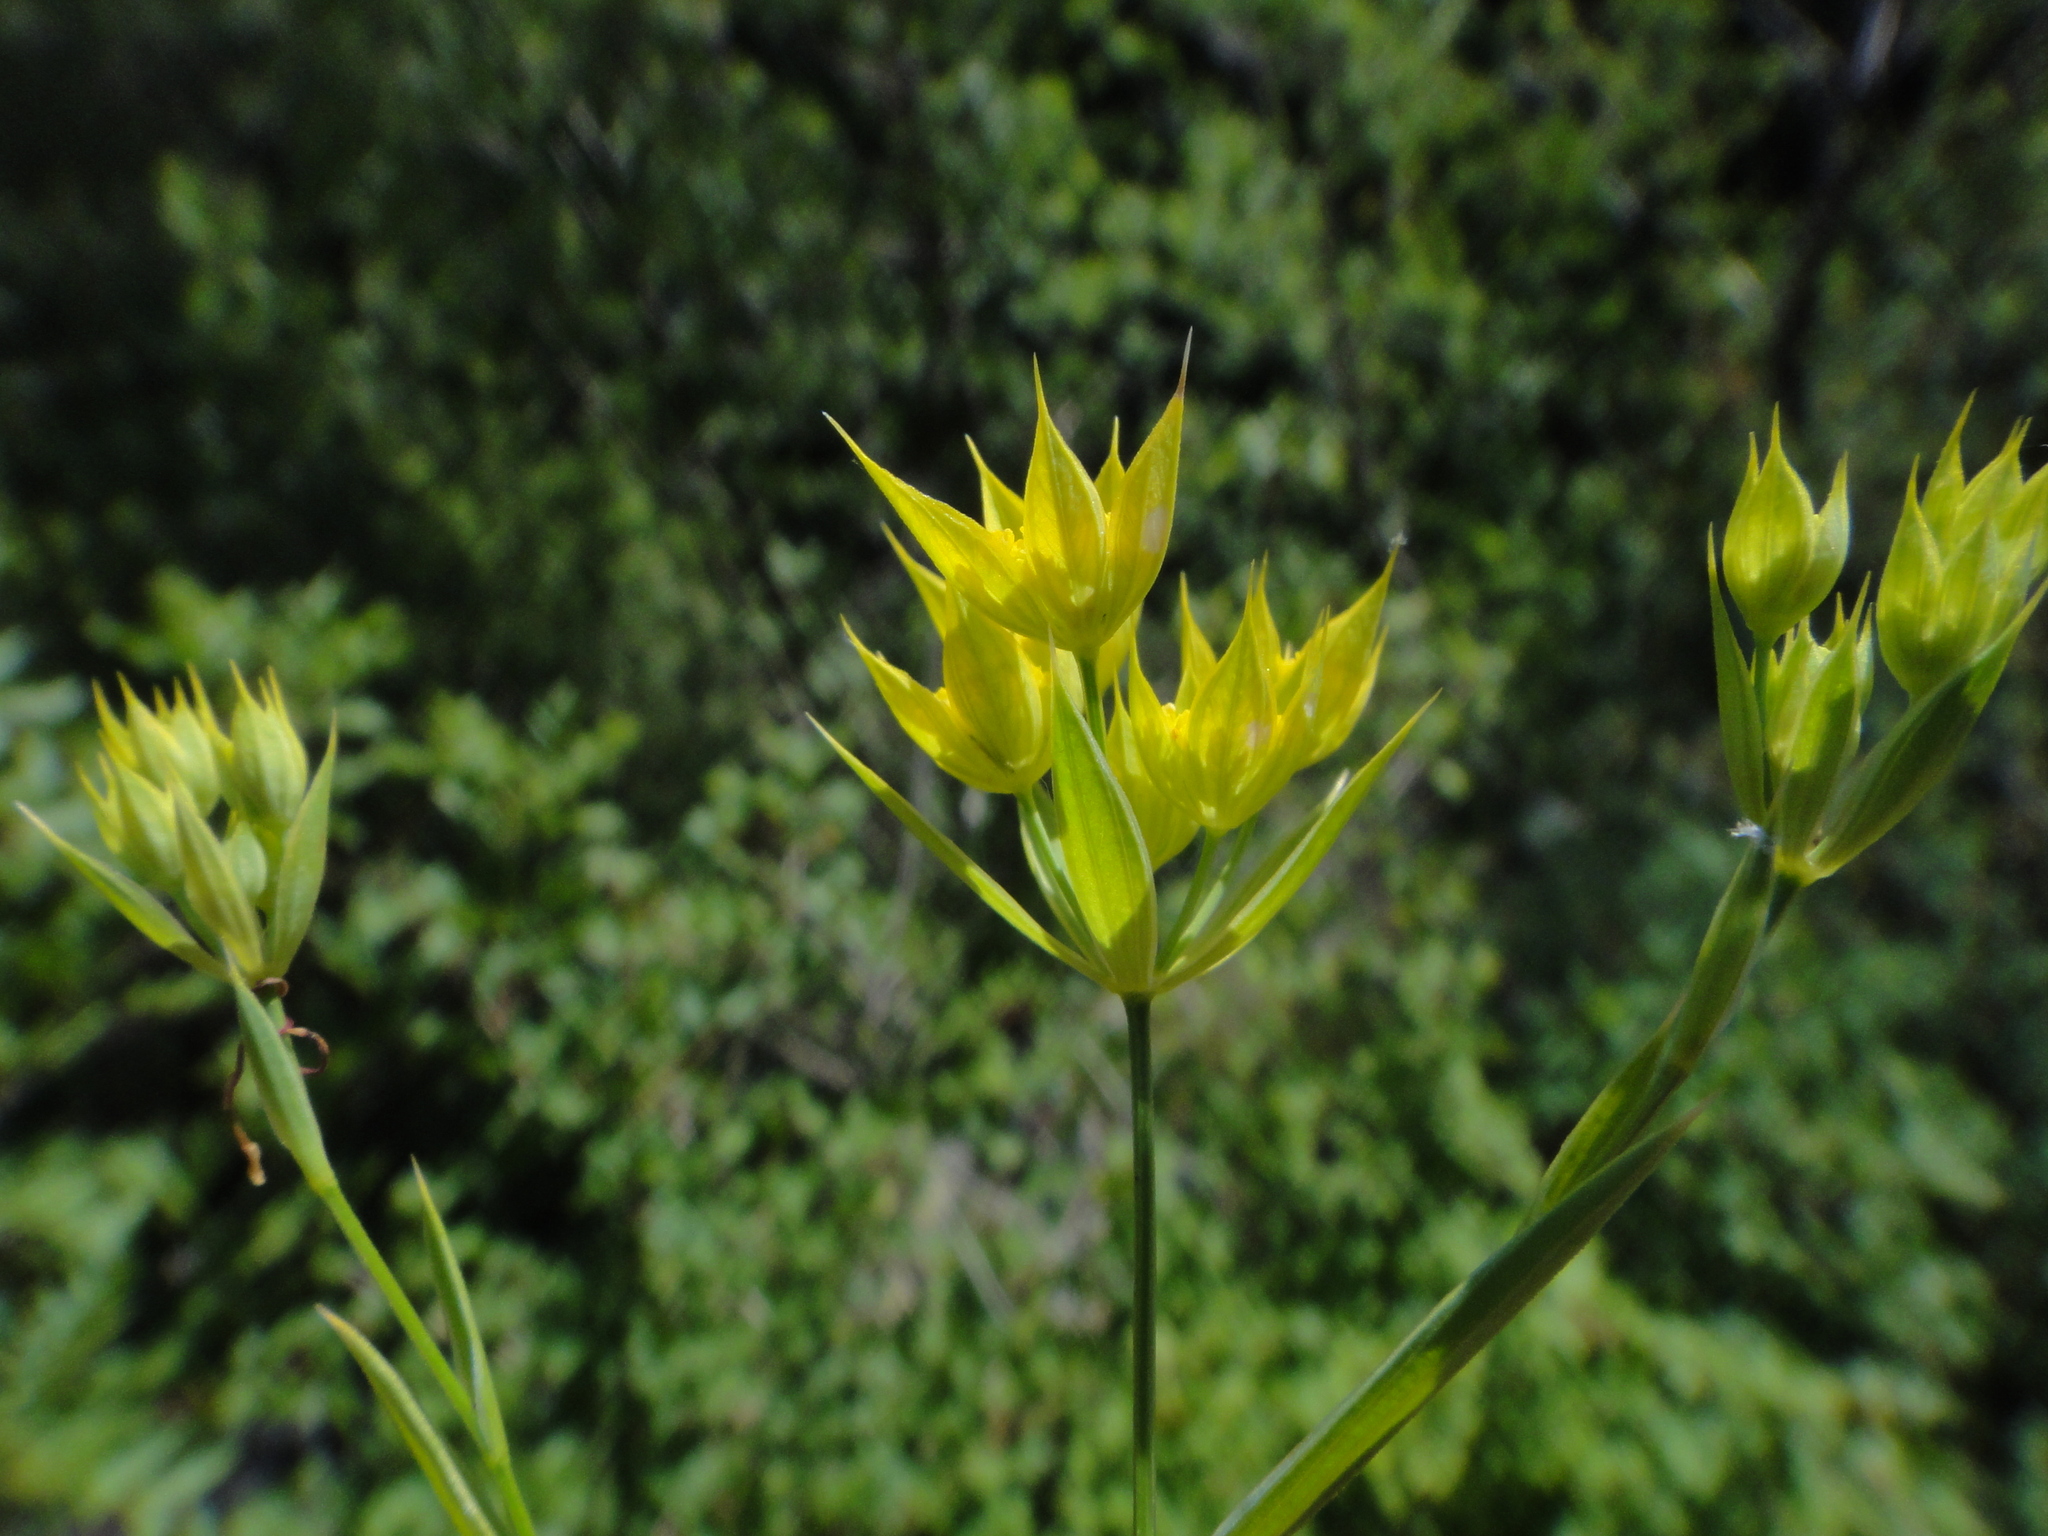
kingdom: Plantae
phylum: Tracheophyta
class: Magnoliopsida
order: Apiales
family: Apiaceae
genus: Bupleurum
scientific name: Bupleurum veronense
